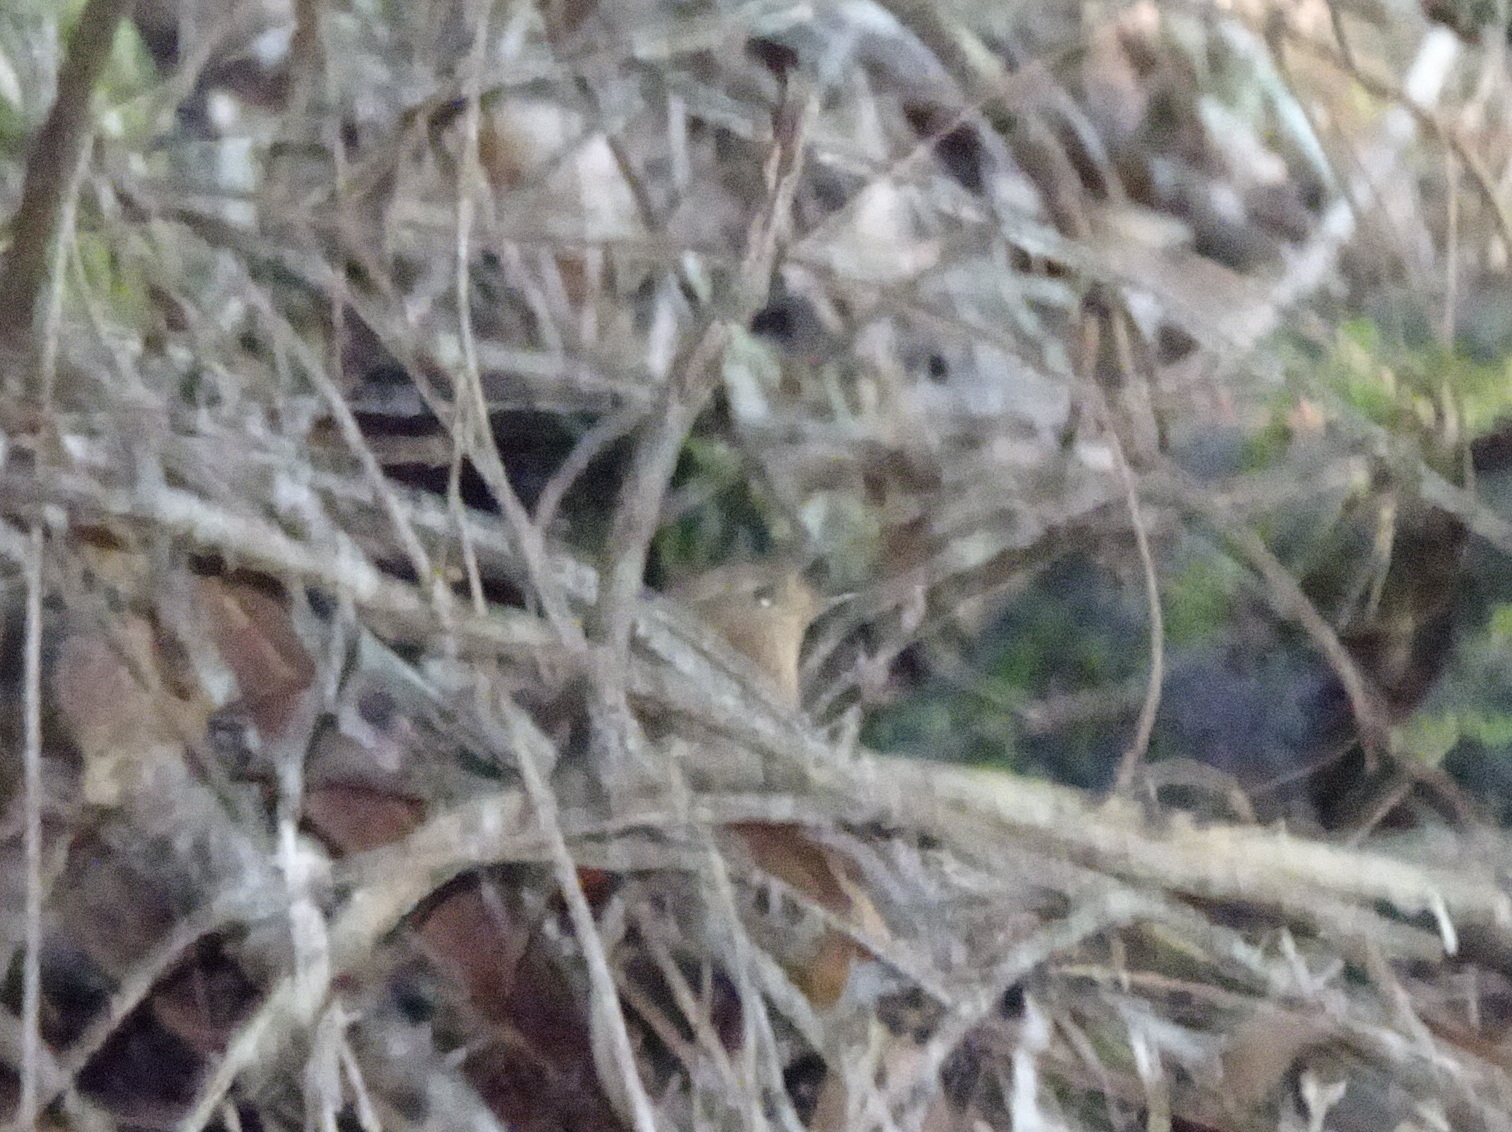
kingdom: Animalia
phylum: Chordata
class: Aves
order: Passeriformes
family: Troglodytidae
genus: Troglodytes
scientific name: Troglodytes pacificus
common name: Pacific wren
